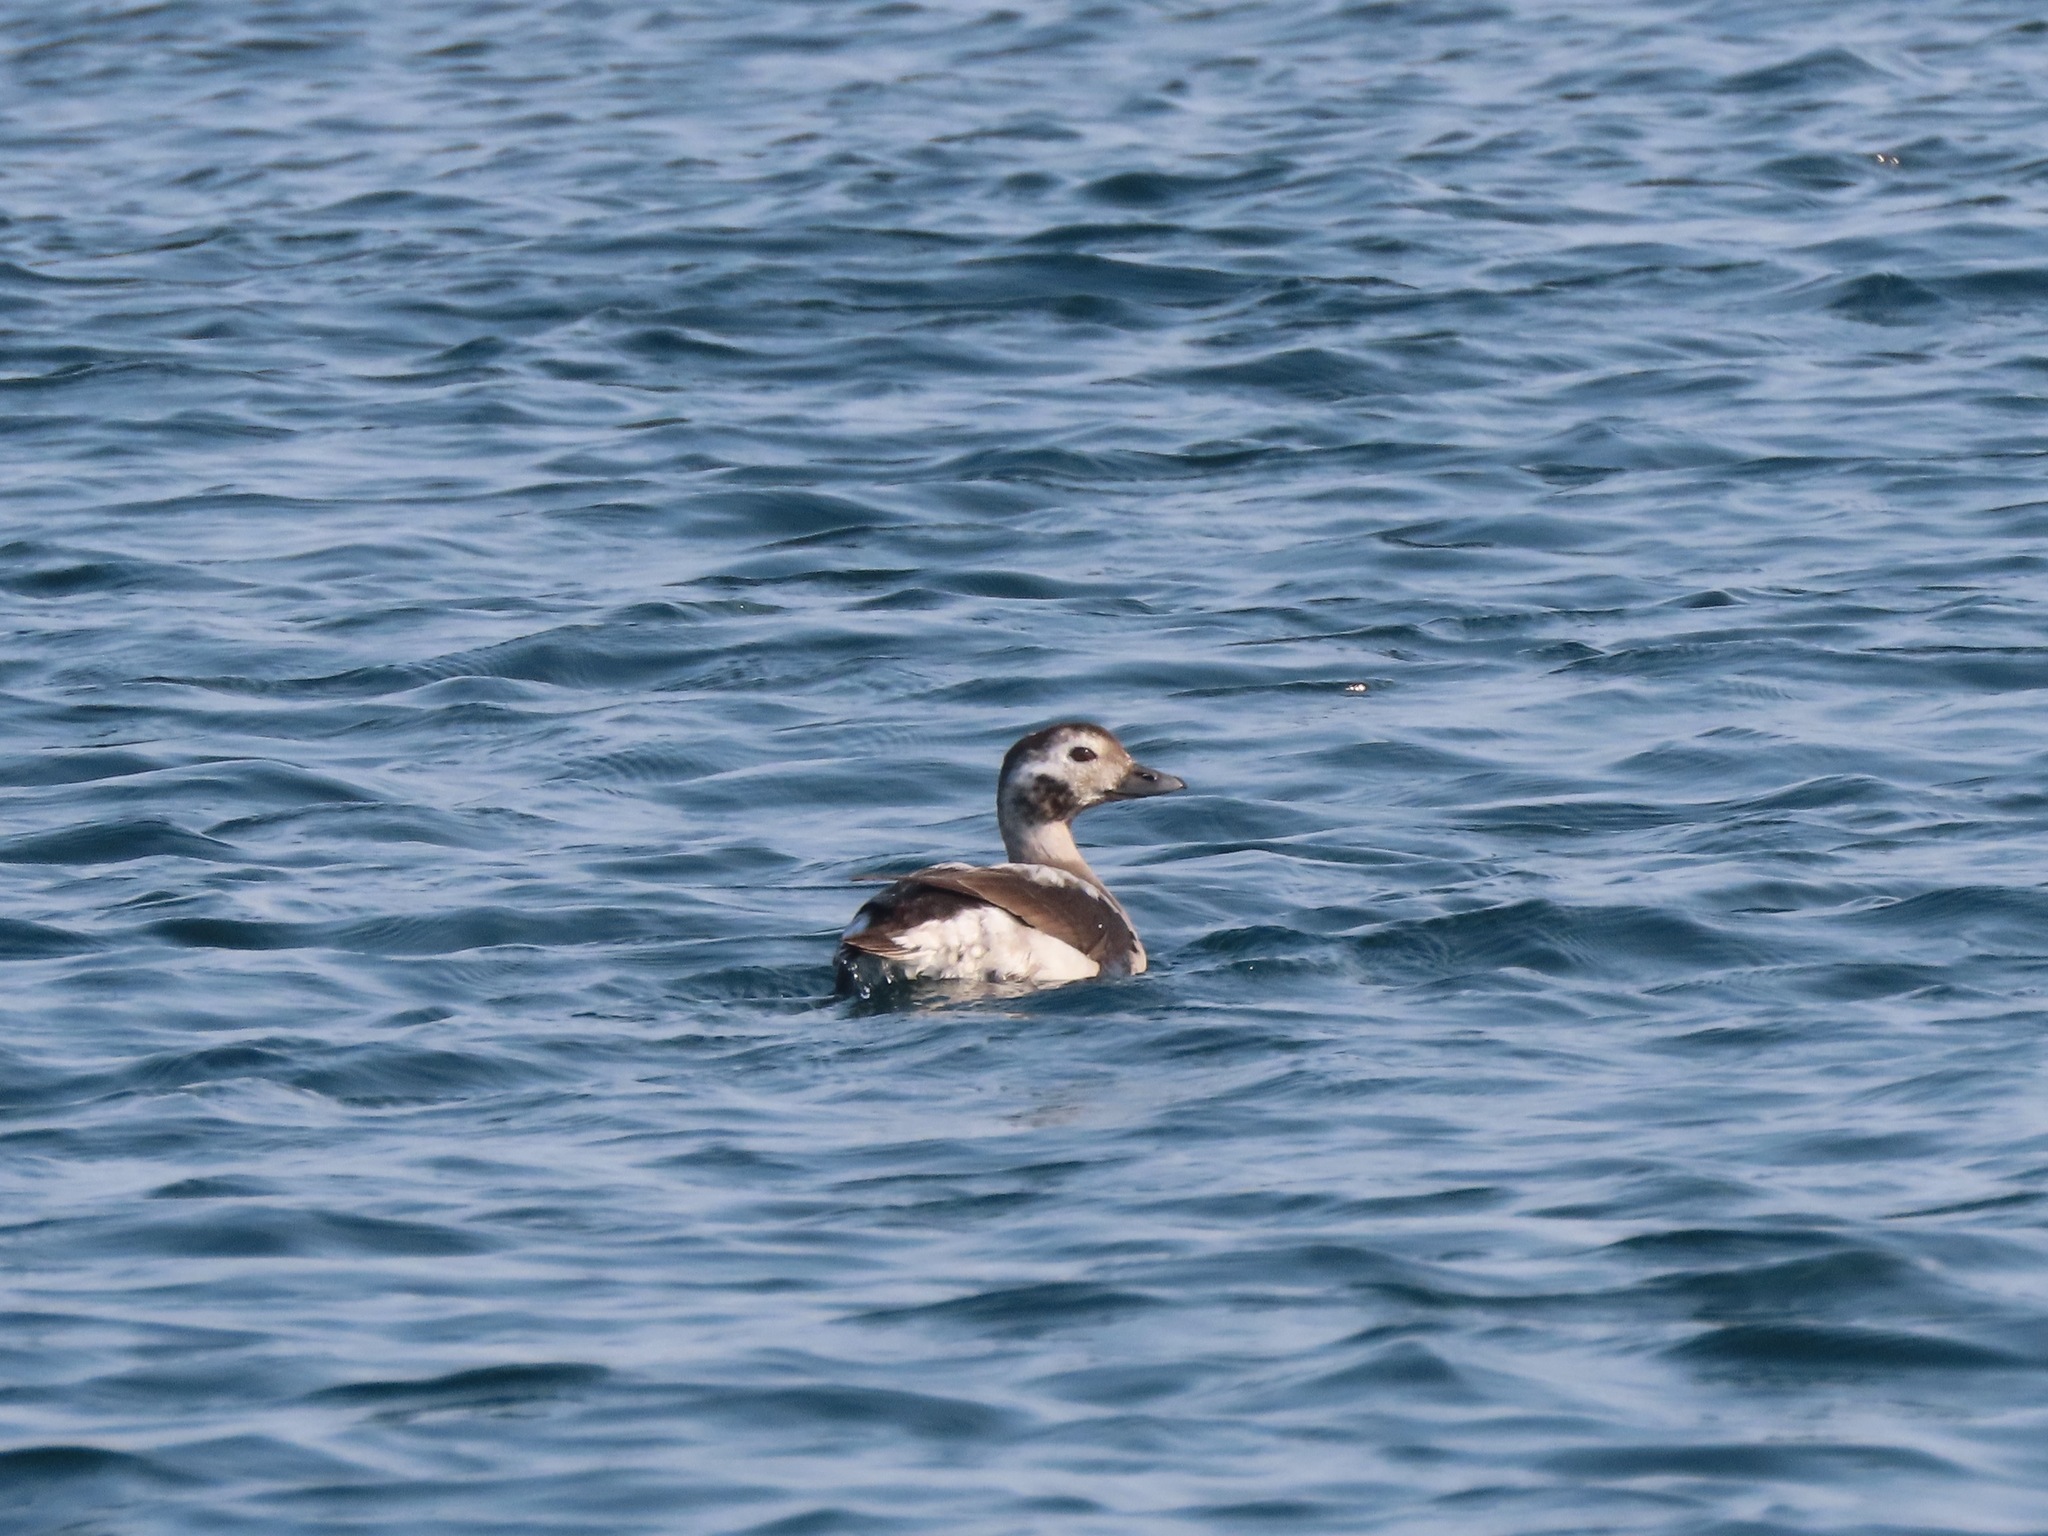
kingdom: Animalia
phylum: Chordata
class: Aves
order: Anseriformes
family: Anatidae
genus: Clangula
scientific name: Clangula hyemalis
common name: Long-tailed duck
